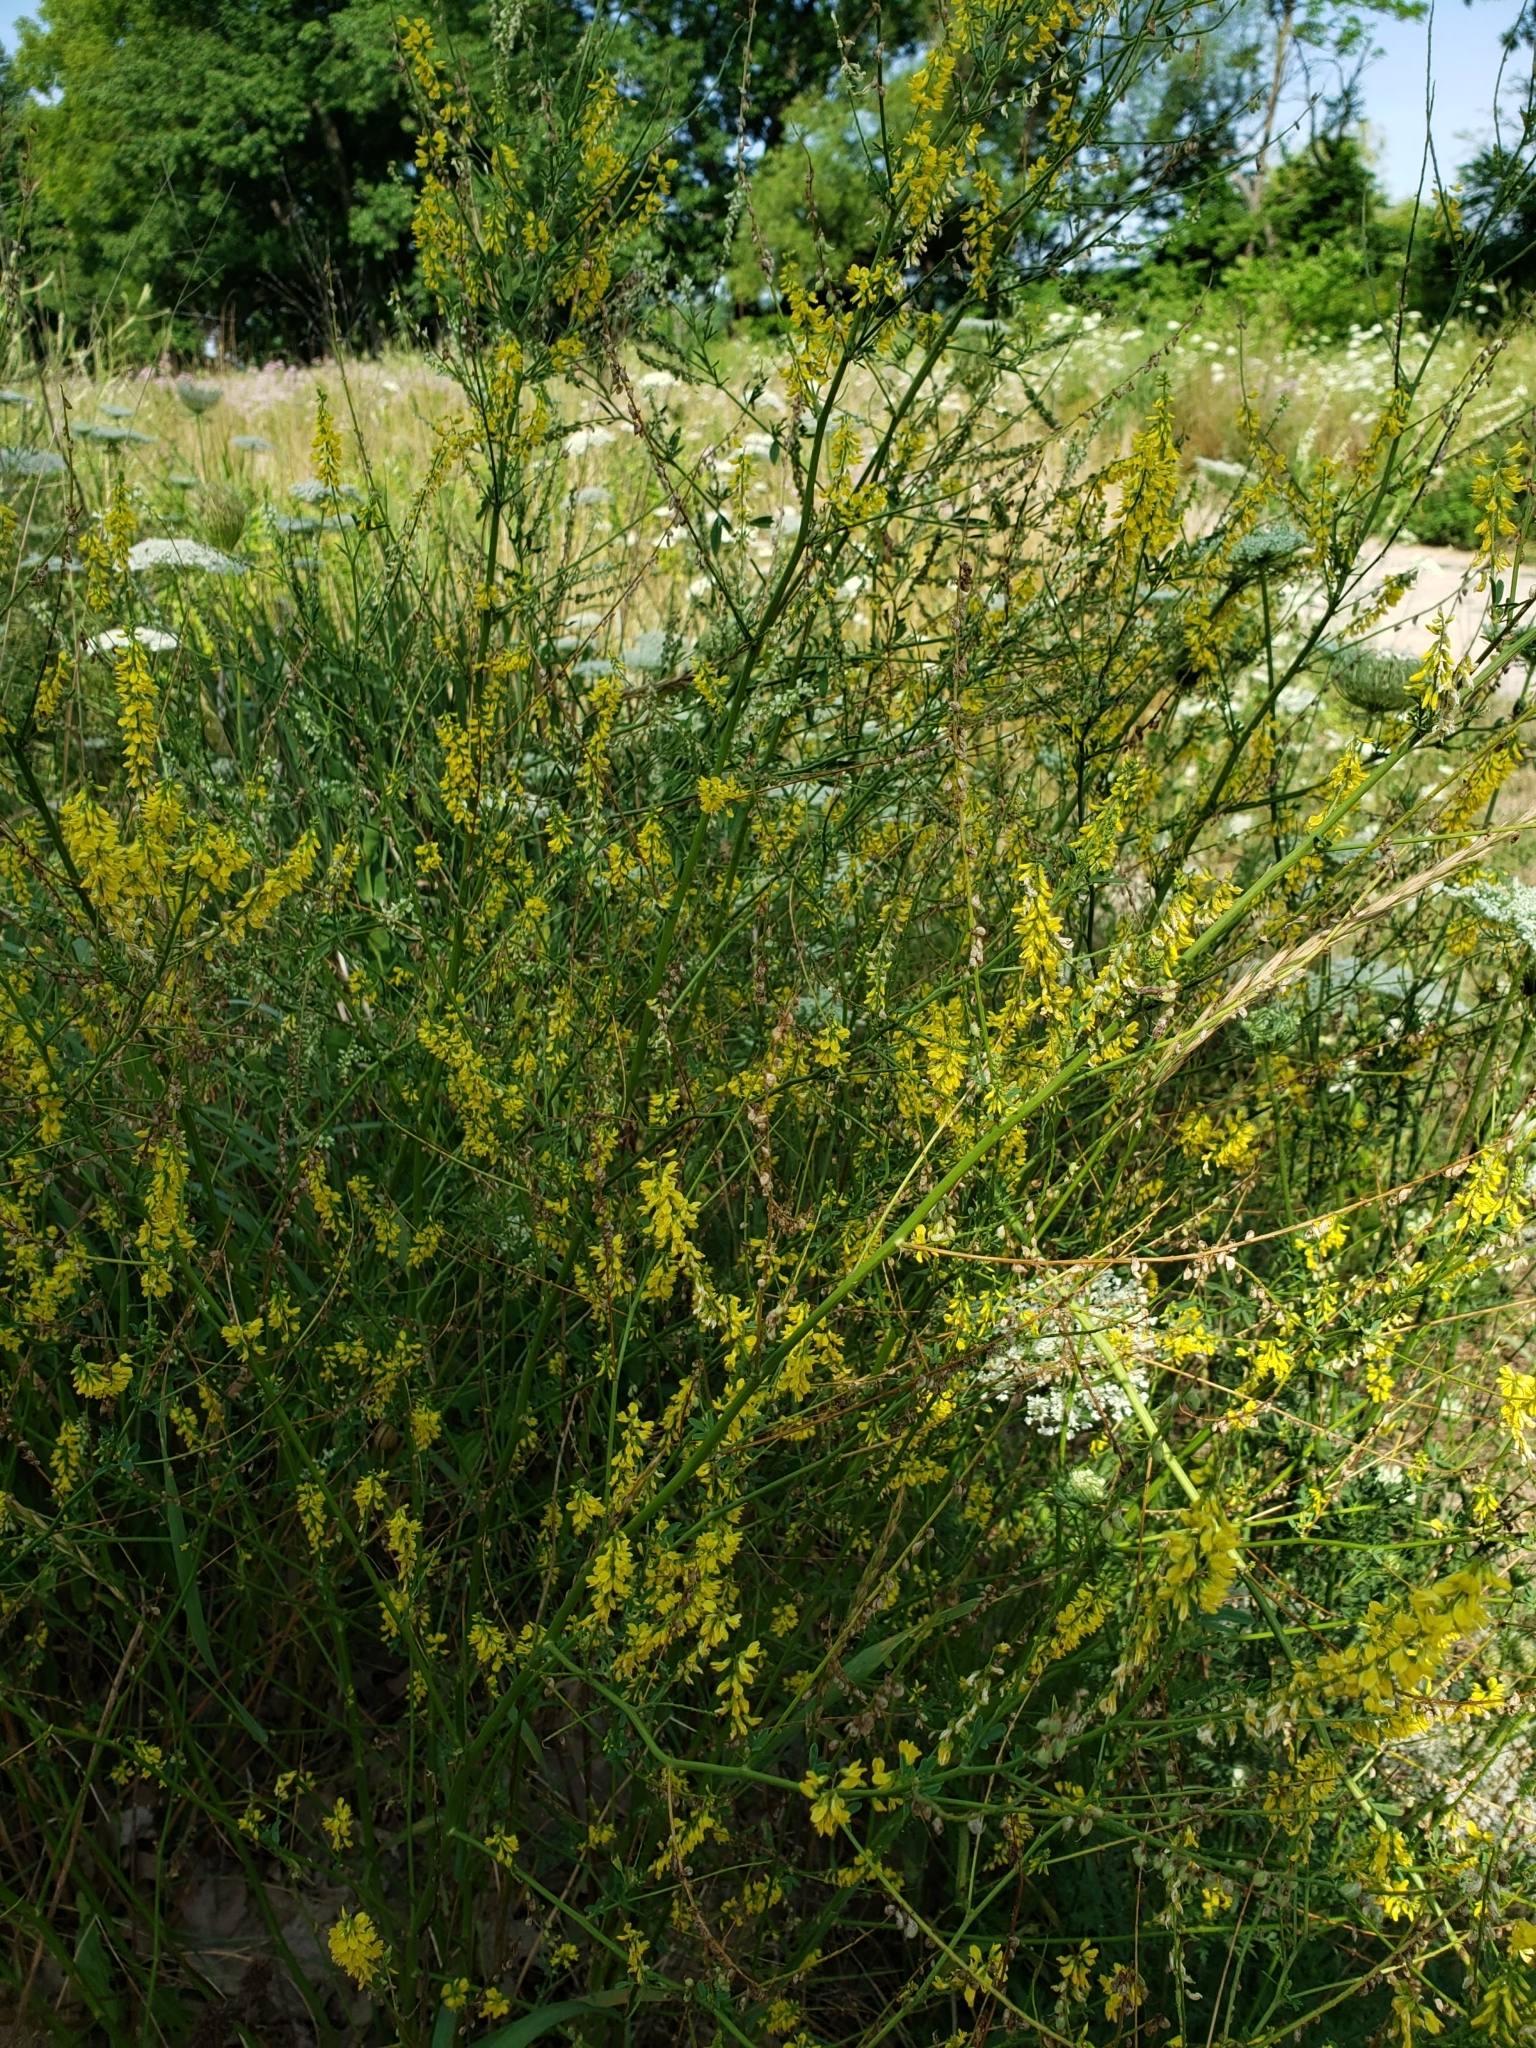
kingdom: Plantae
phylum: Tracheophyta
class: Magnoliopsida
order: Fabales
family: Fabaceae
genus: Melilotus
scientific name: Melilotus officinalis
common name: Sweetclover
